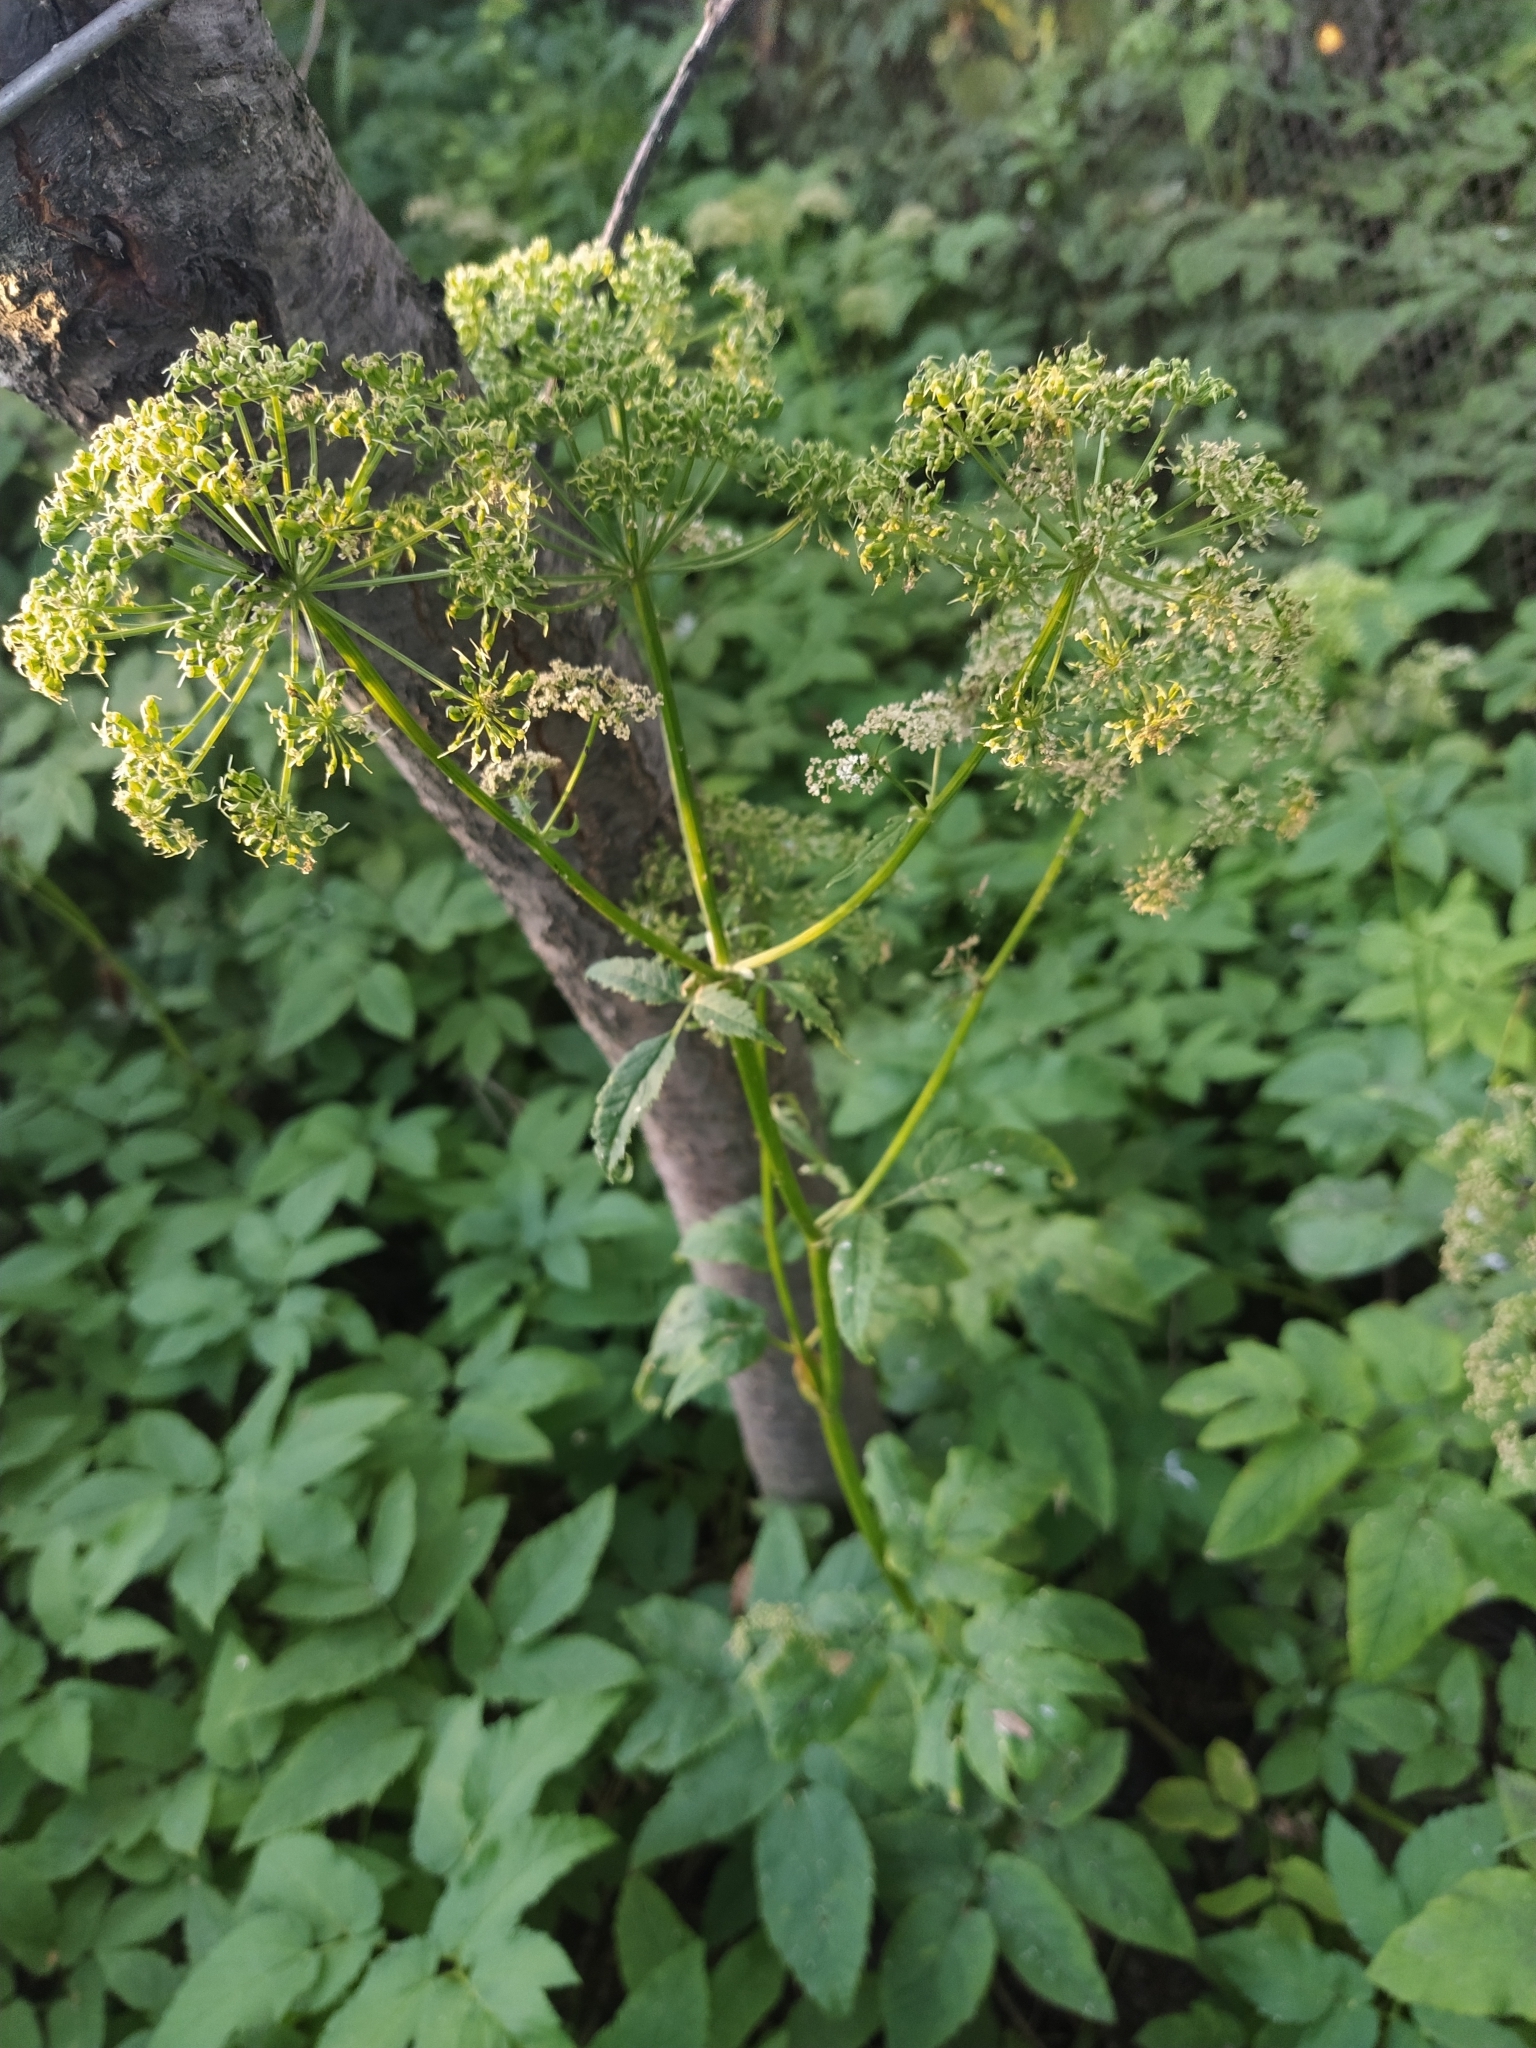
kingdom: Plantae
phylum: Tracheophyta
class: Magnoliopsida
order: Apiales
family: Apiaceae
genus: Aegopodium
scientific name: Aegopodium podagraria
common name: Ground-elder
